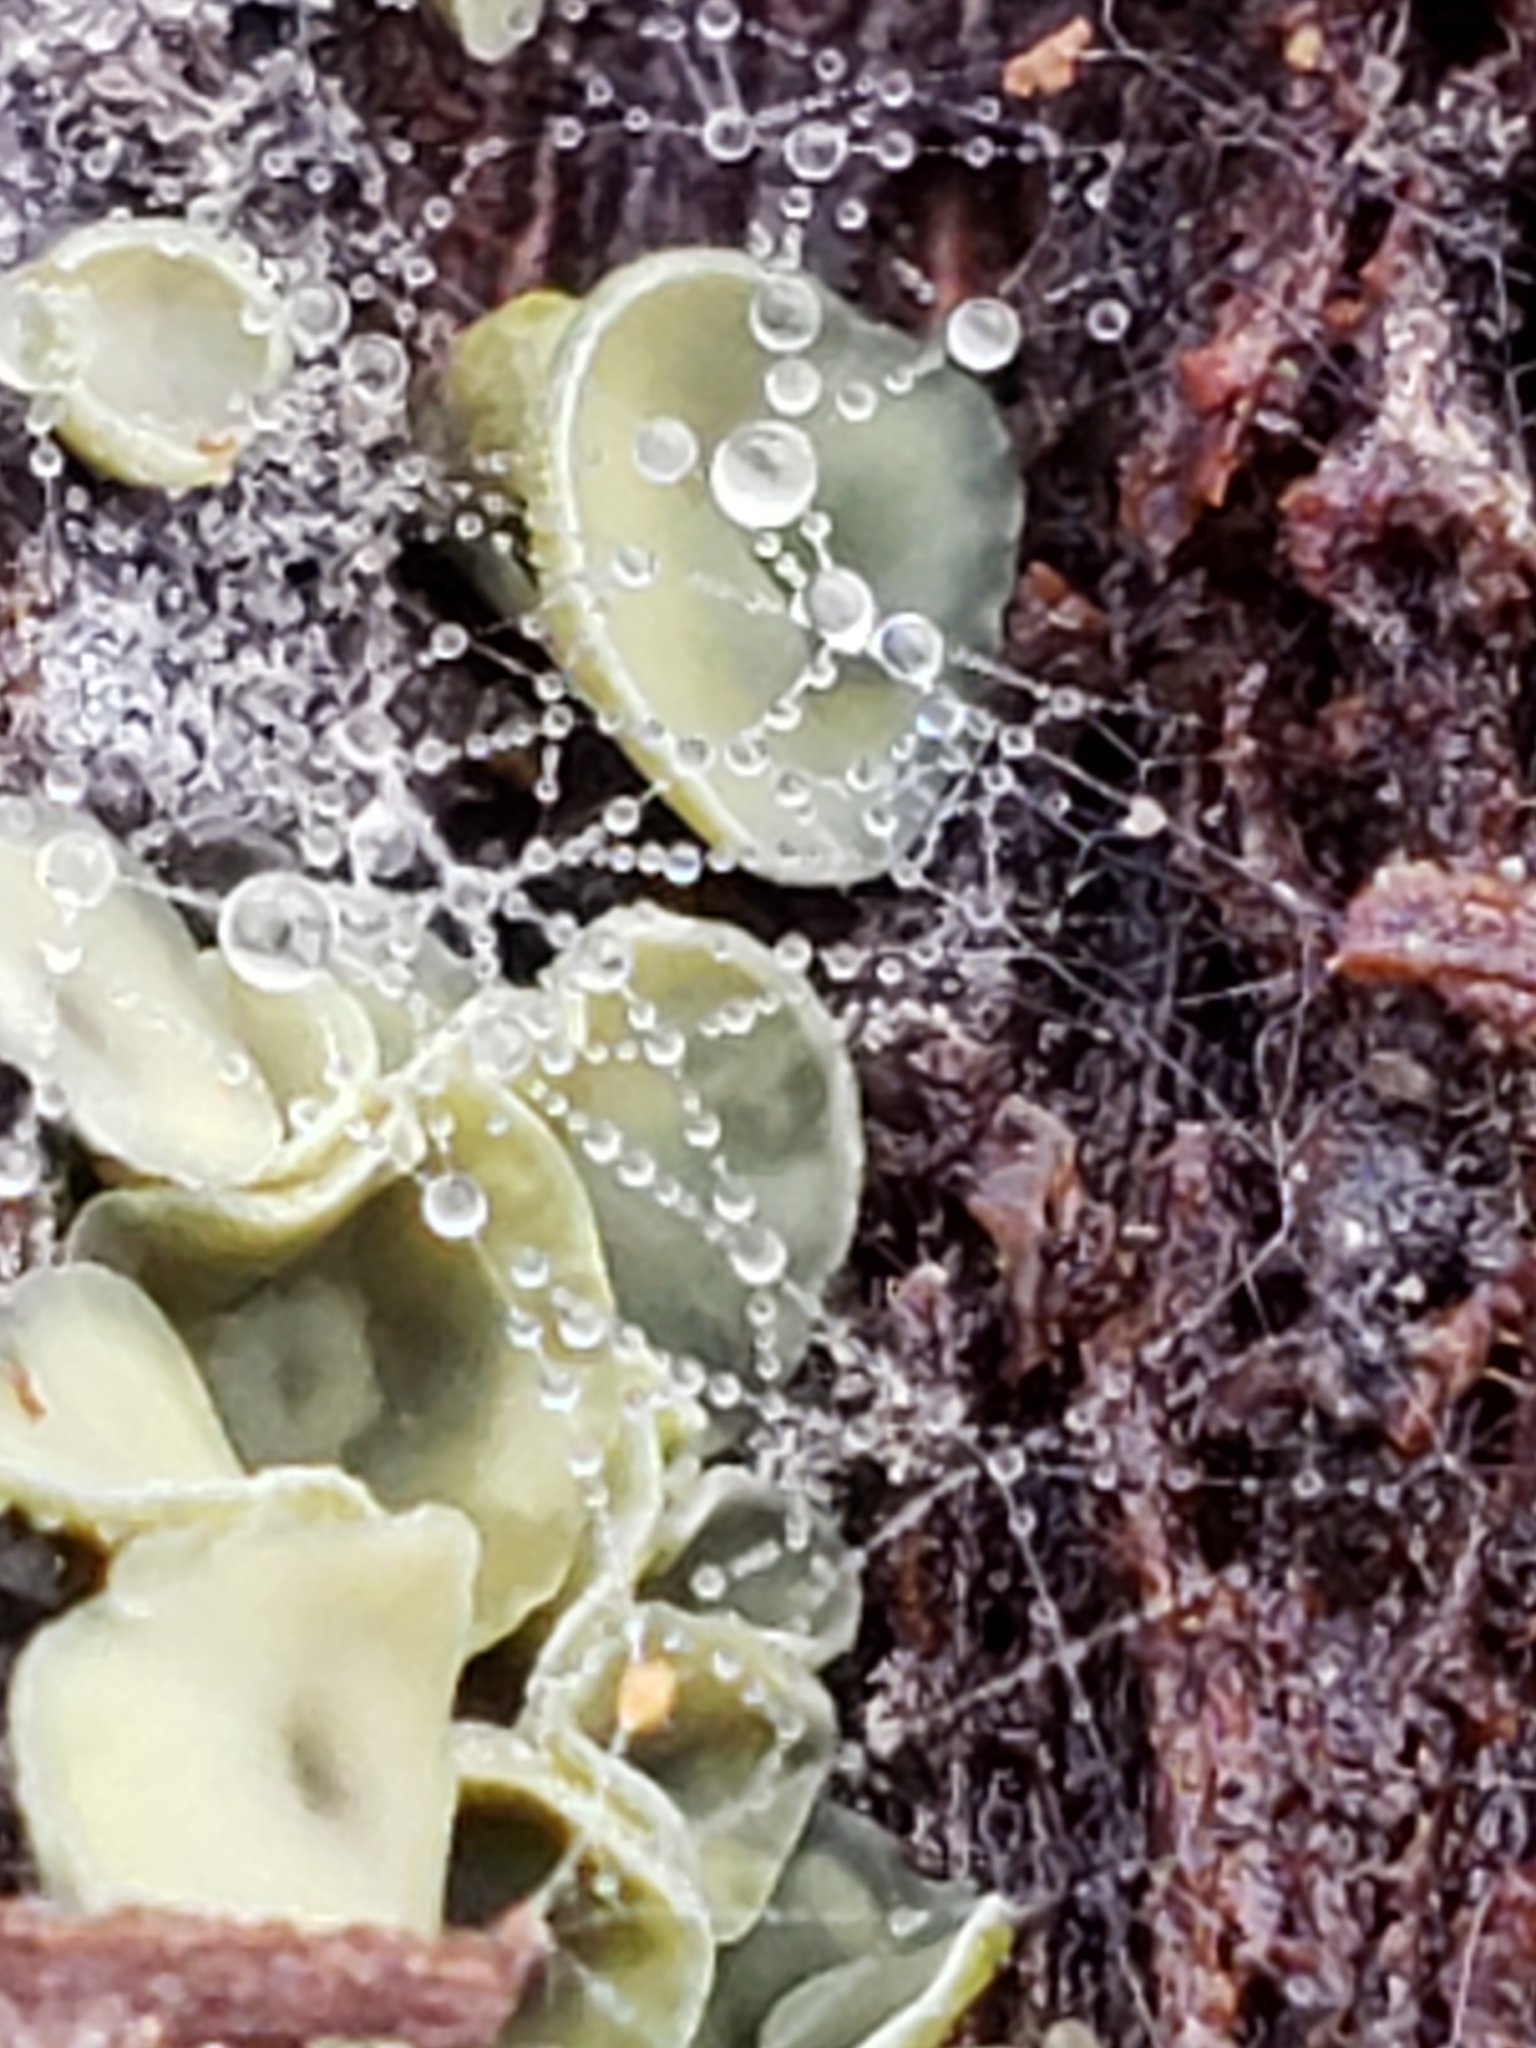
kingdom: Fungi
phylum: Ascomycota
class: Leotiomycetes
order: Helotiales
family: Chlorospleniaceae
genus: Chlorosplenium
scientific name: Chlorosplenium chlora
